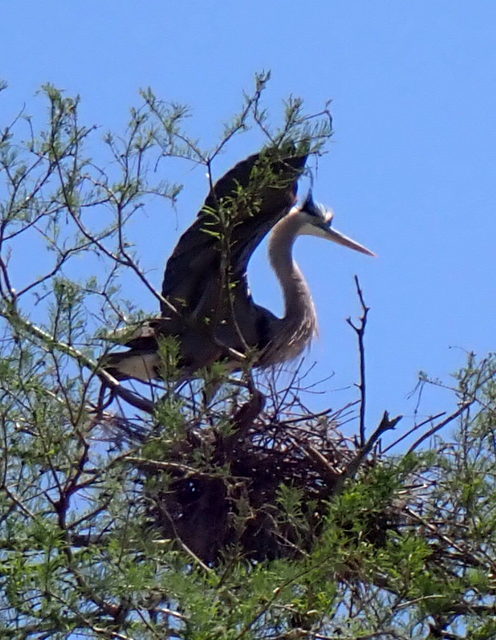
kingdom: Animalia
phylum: Chordata
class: Aves
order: Pelecaniformes
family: Ardeidae
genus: Ardea
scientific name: Ardea herodias
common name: Great blue heron
